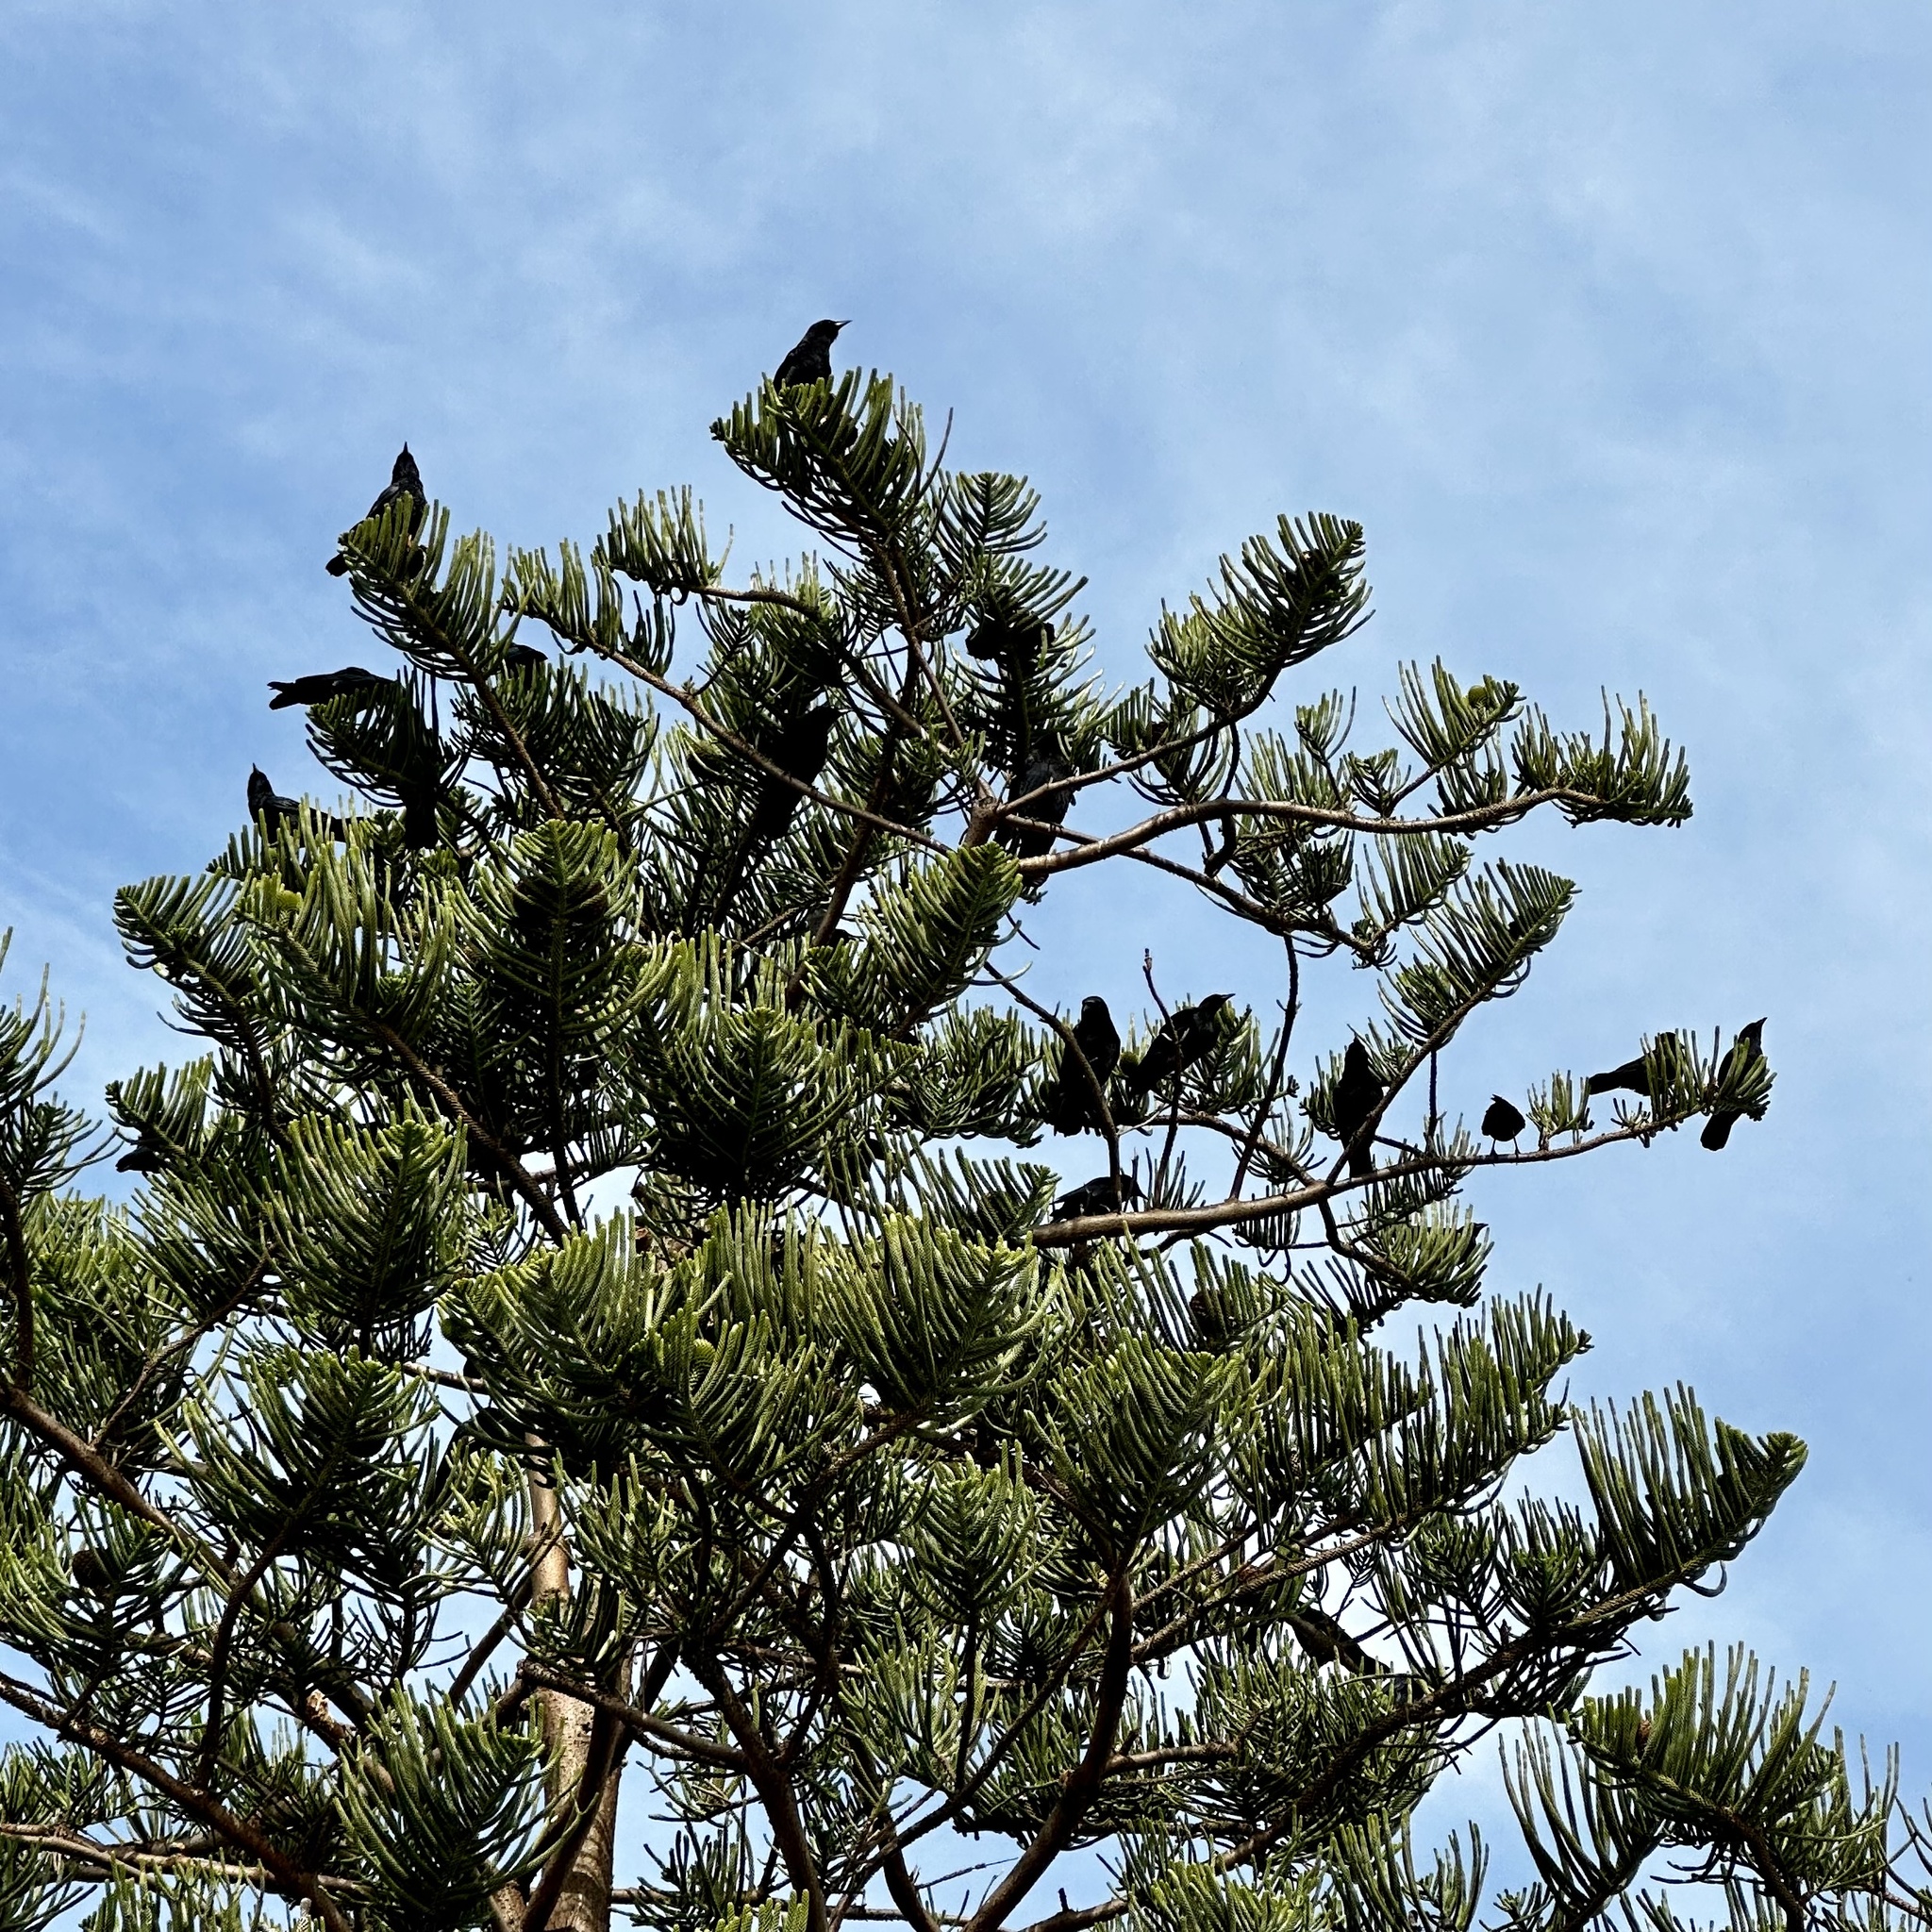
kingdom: Animalia
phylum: Chordata
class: Aves
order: Passeriformes
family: Corvidae
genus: Corvus
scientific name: Corvus brachyrhynchos
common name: American crow
